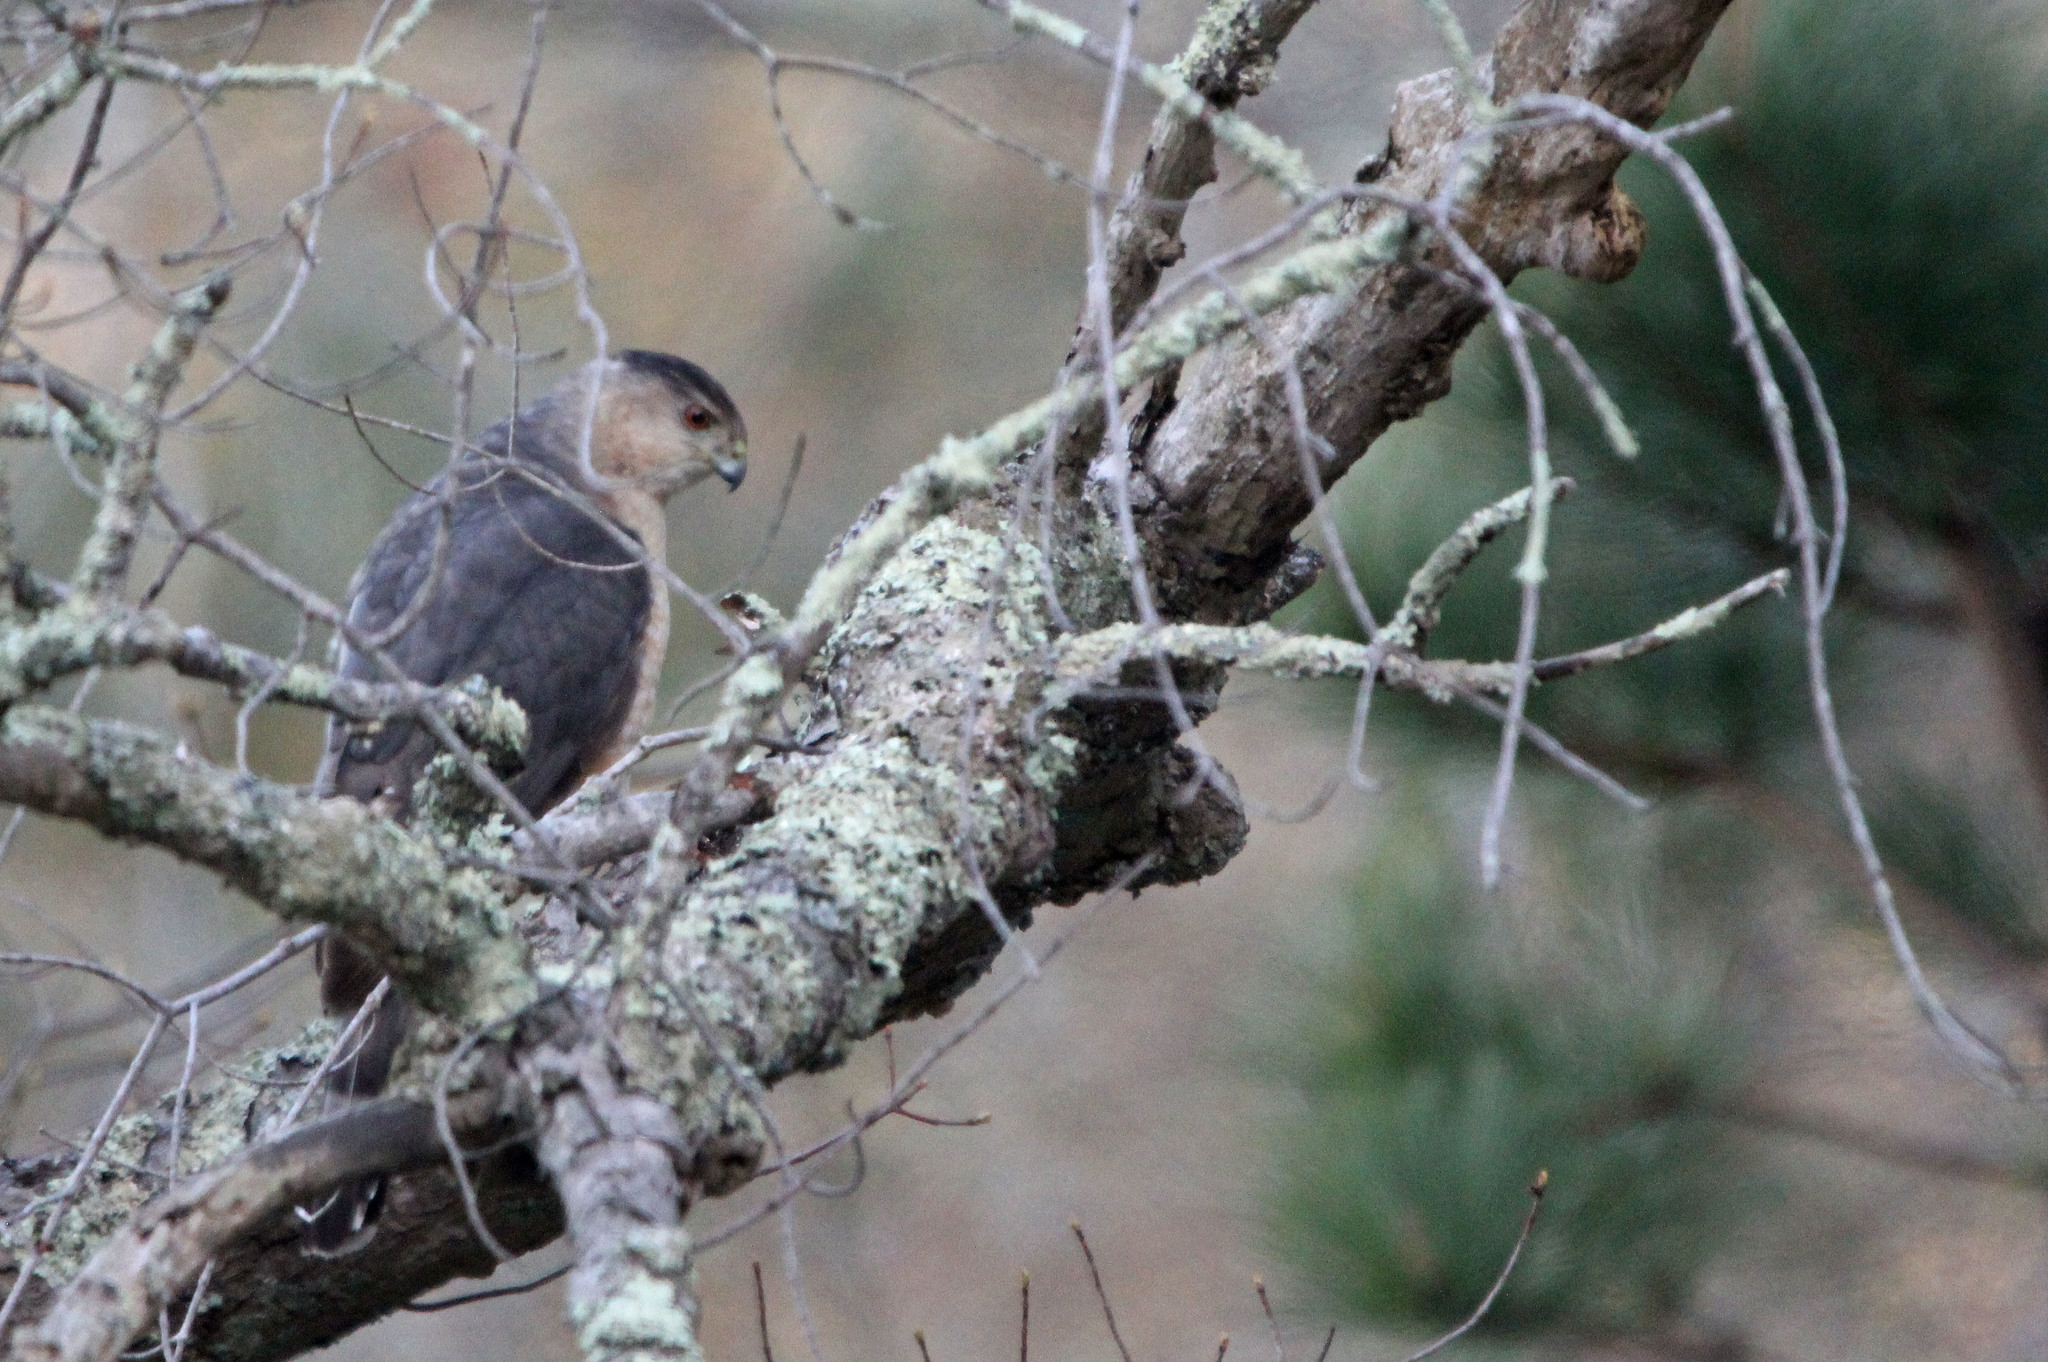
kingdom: Animalia
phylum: Chordata
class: Aves
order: Accipitriformes
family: Accipitridae
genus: Accipiter
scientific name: Accipiter cooperii
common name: Cooper's hawk
